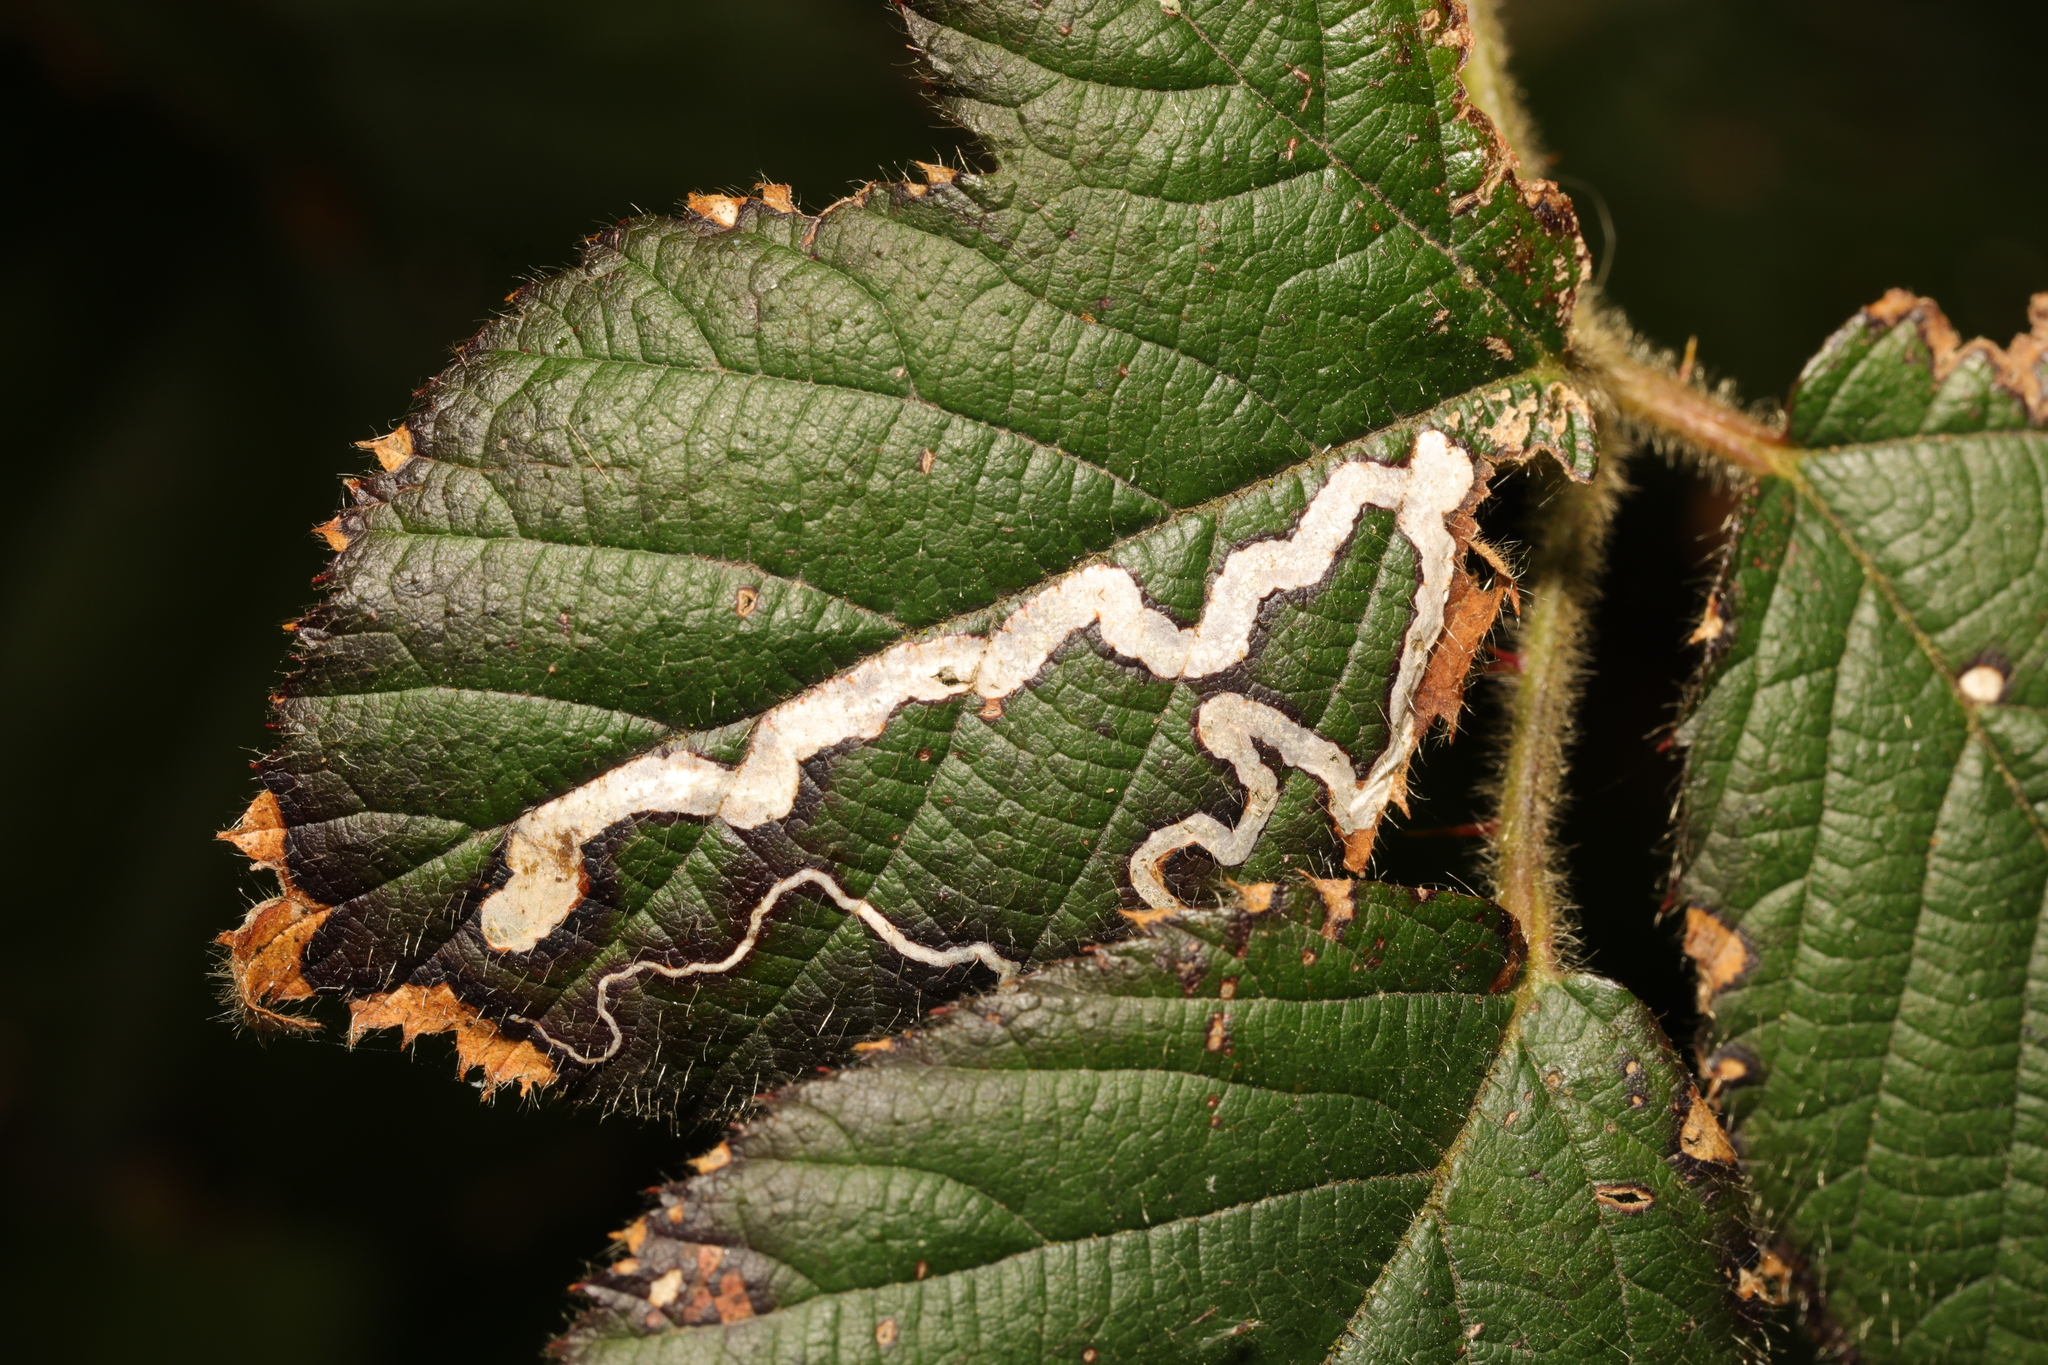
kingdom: Animalia
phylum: Arthropoda
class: Insecta
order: Lepidoptera
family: Nepticulidae
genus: Stigmella
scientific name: Stigmella aurella
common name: Golden pigmy
